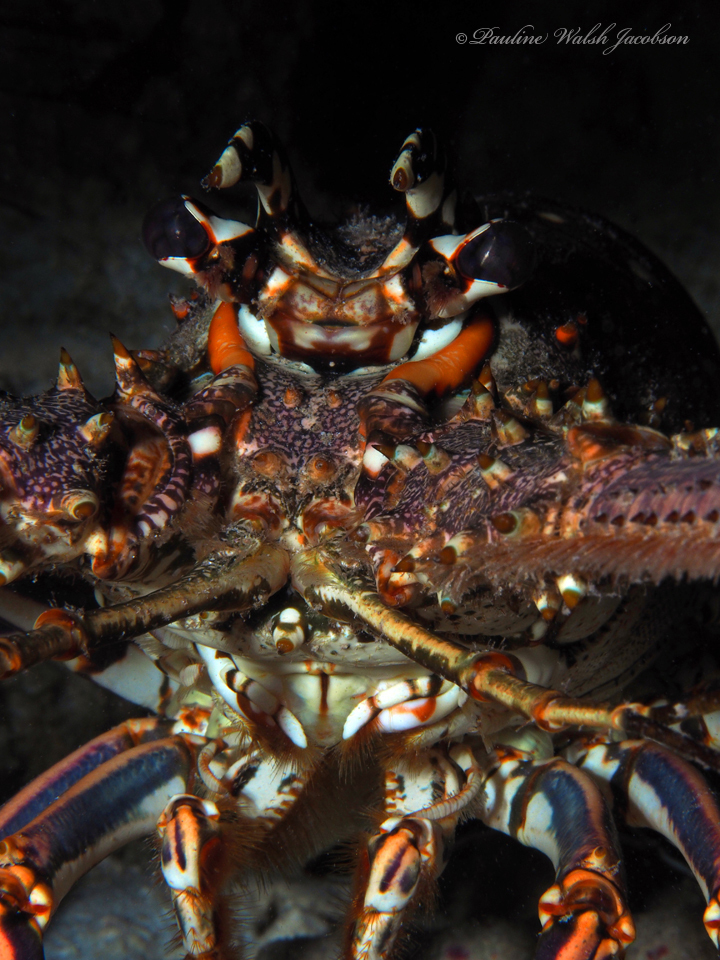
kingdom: Animalia
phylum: Arthropoda
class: Malacostraca
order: Decapoda
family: Palinuridae
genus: Panulirus
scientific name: Panulirus argus
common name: Caribbean spiny lobster
